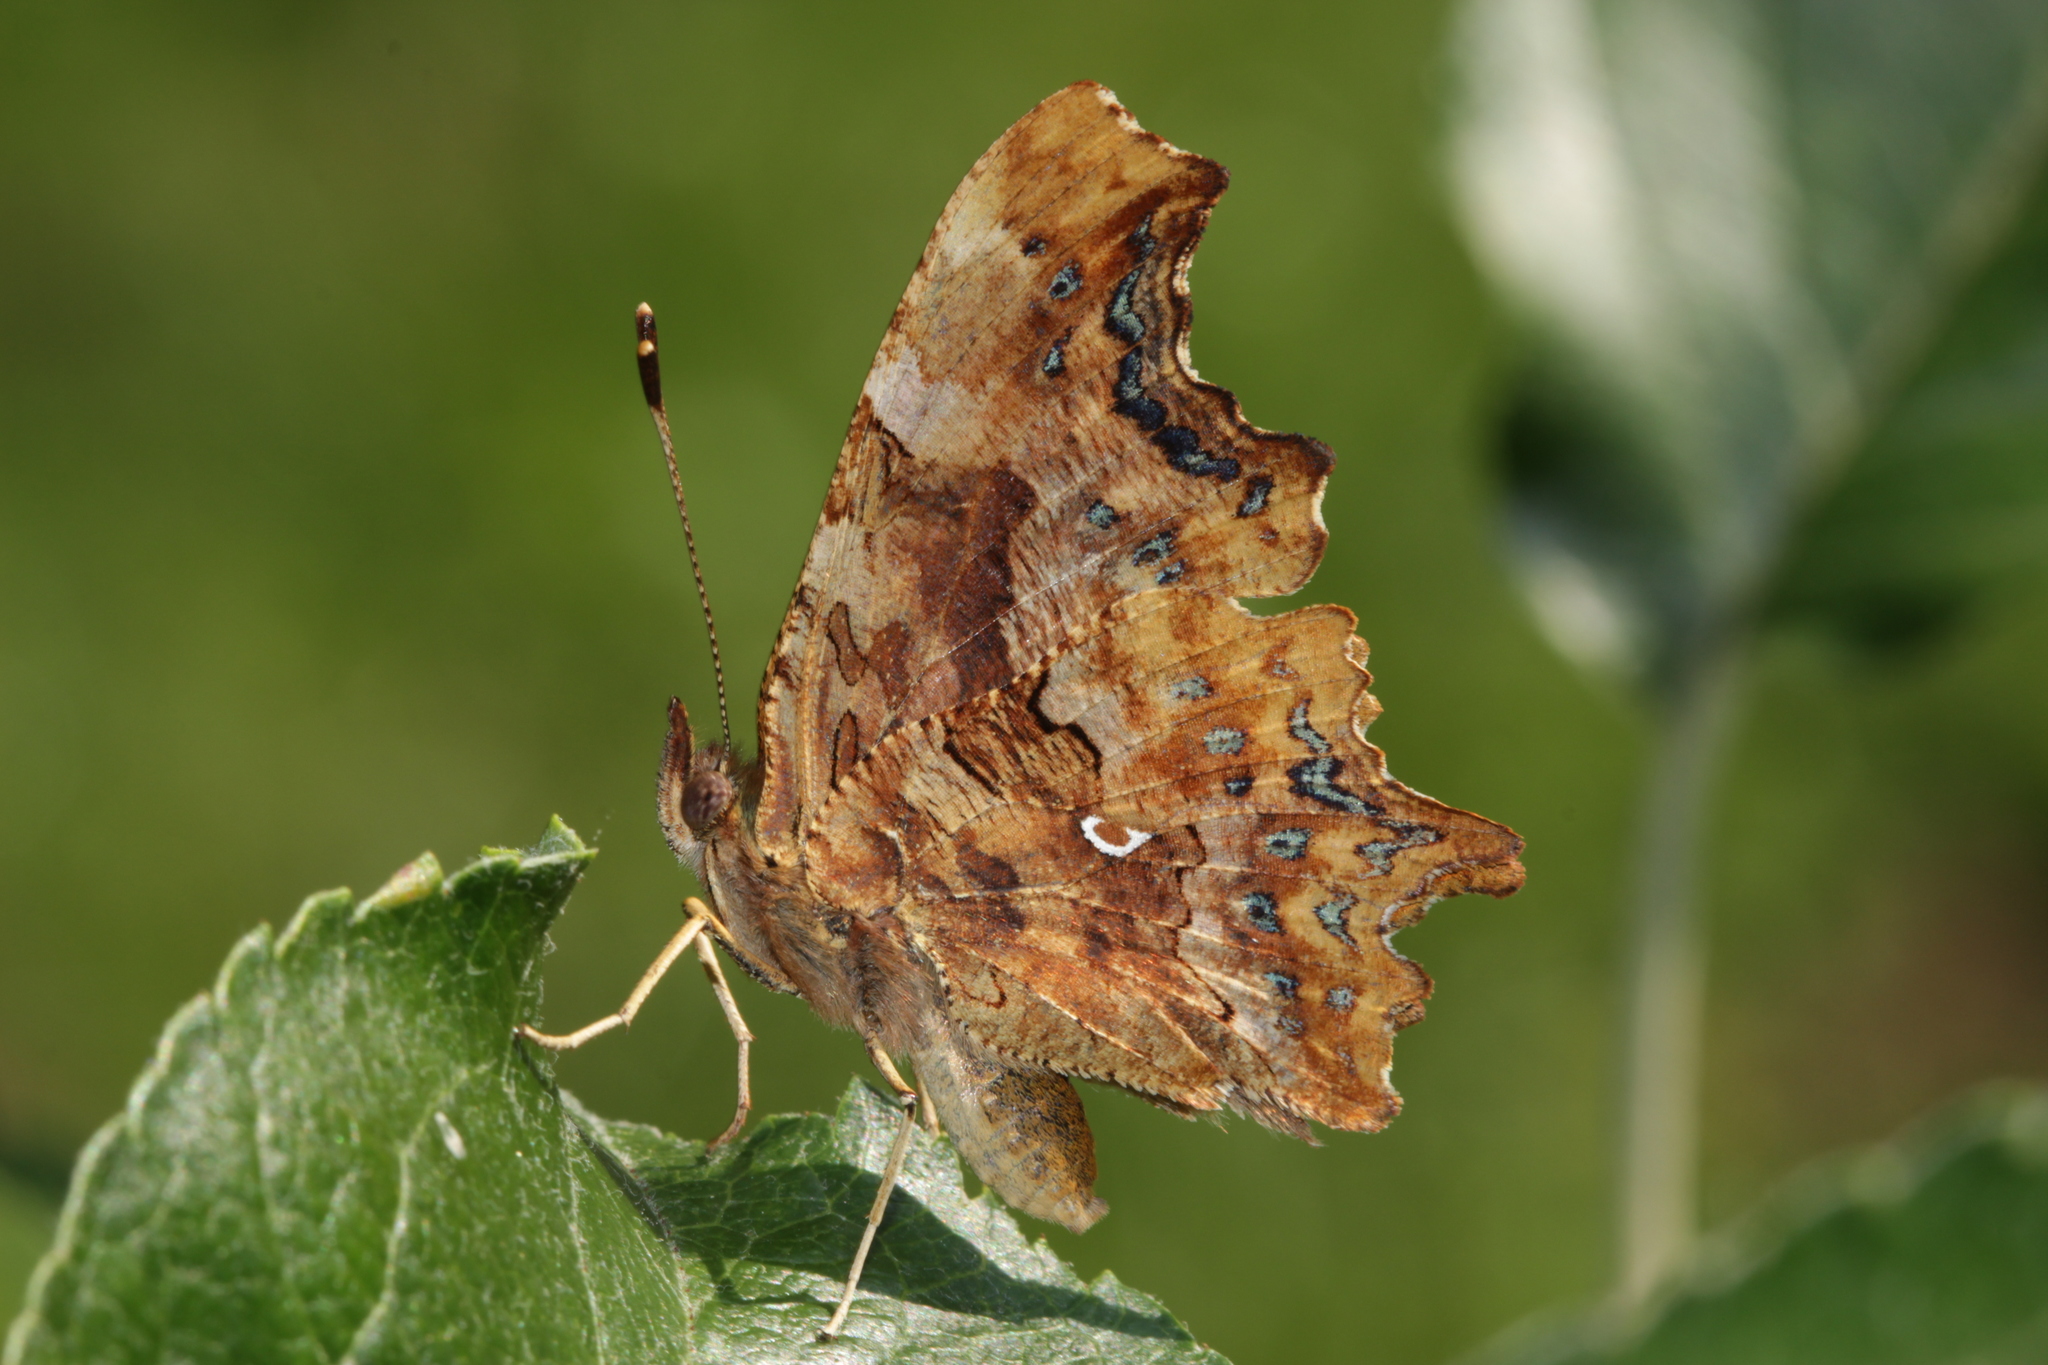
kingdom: Animalia
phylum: Arthropoda
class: Insecta
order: Lepidoptera
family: Nymphalidae
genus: Polygonia
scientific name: Polygonia c-album
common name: Comma
